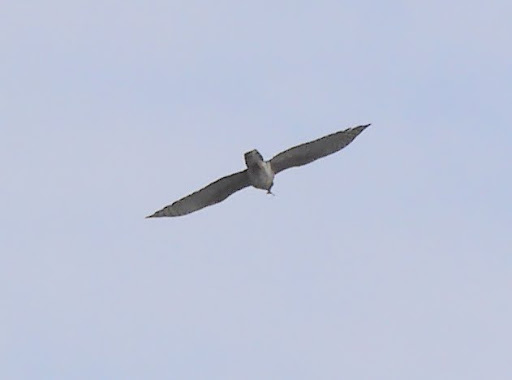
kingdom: Animalia
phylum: Chordata
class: Aves
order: Accipitriformes
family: Accipitridae
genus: Aviceda
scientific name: Aviceda cuculoides
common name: African cuckoo-hawk
